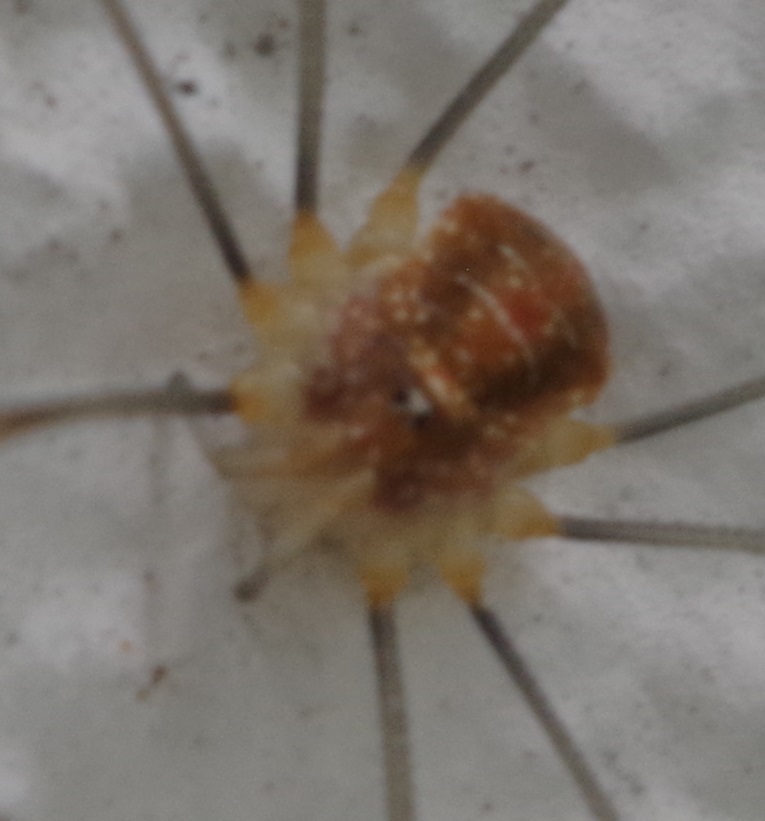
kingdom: Animalia
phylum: Arthropoda
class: Arachnida
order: Opiliones
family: Phalangiidae
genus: Opilio
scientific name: Opilio canestrinii
